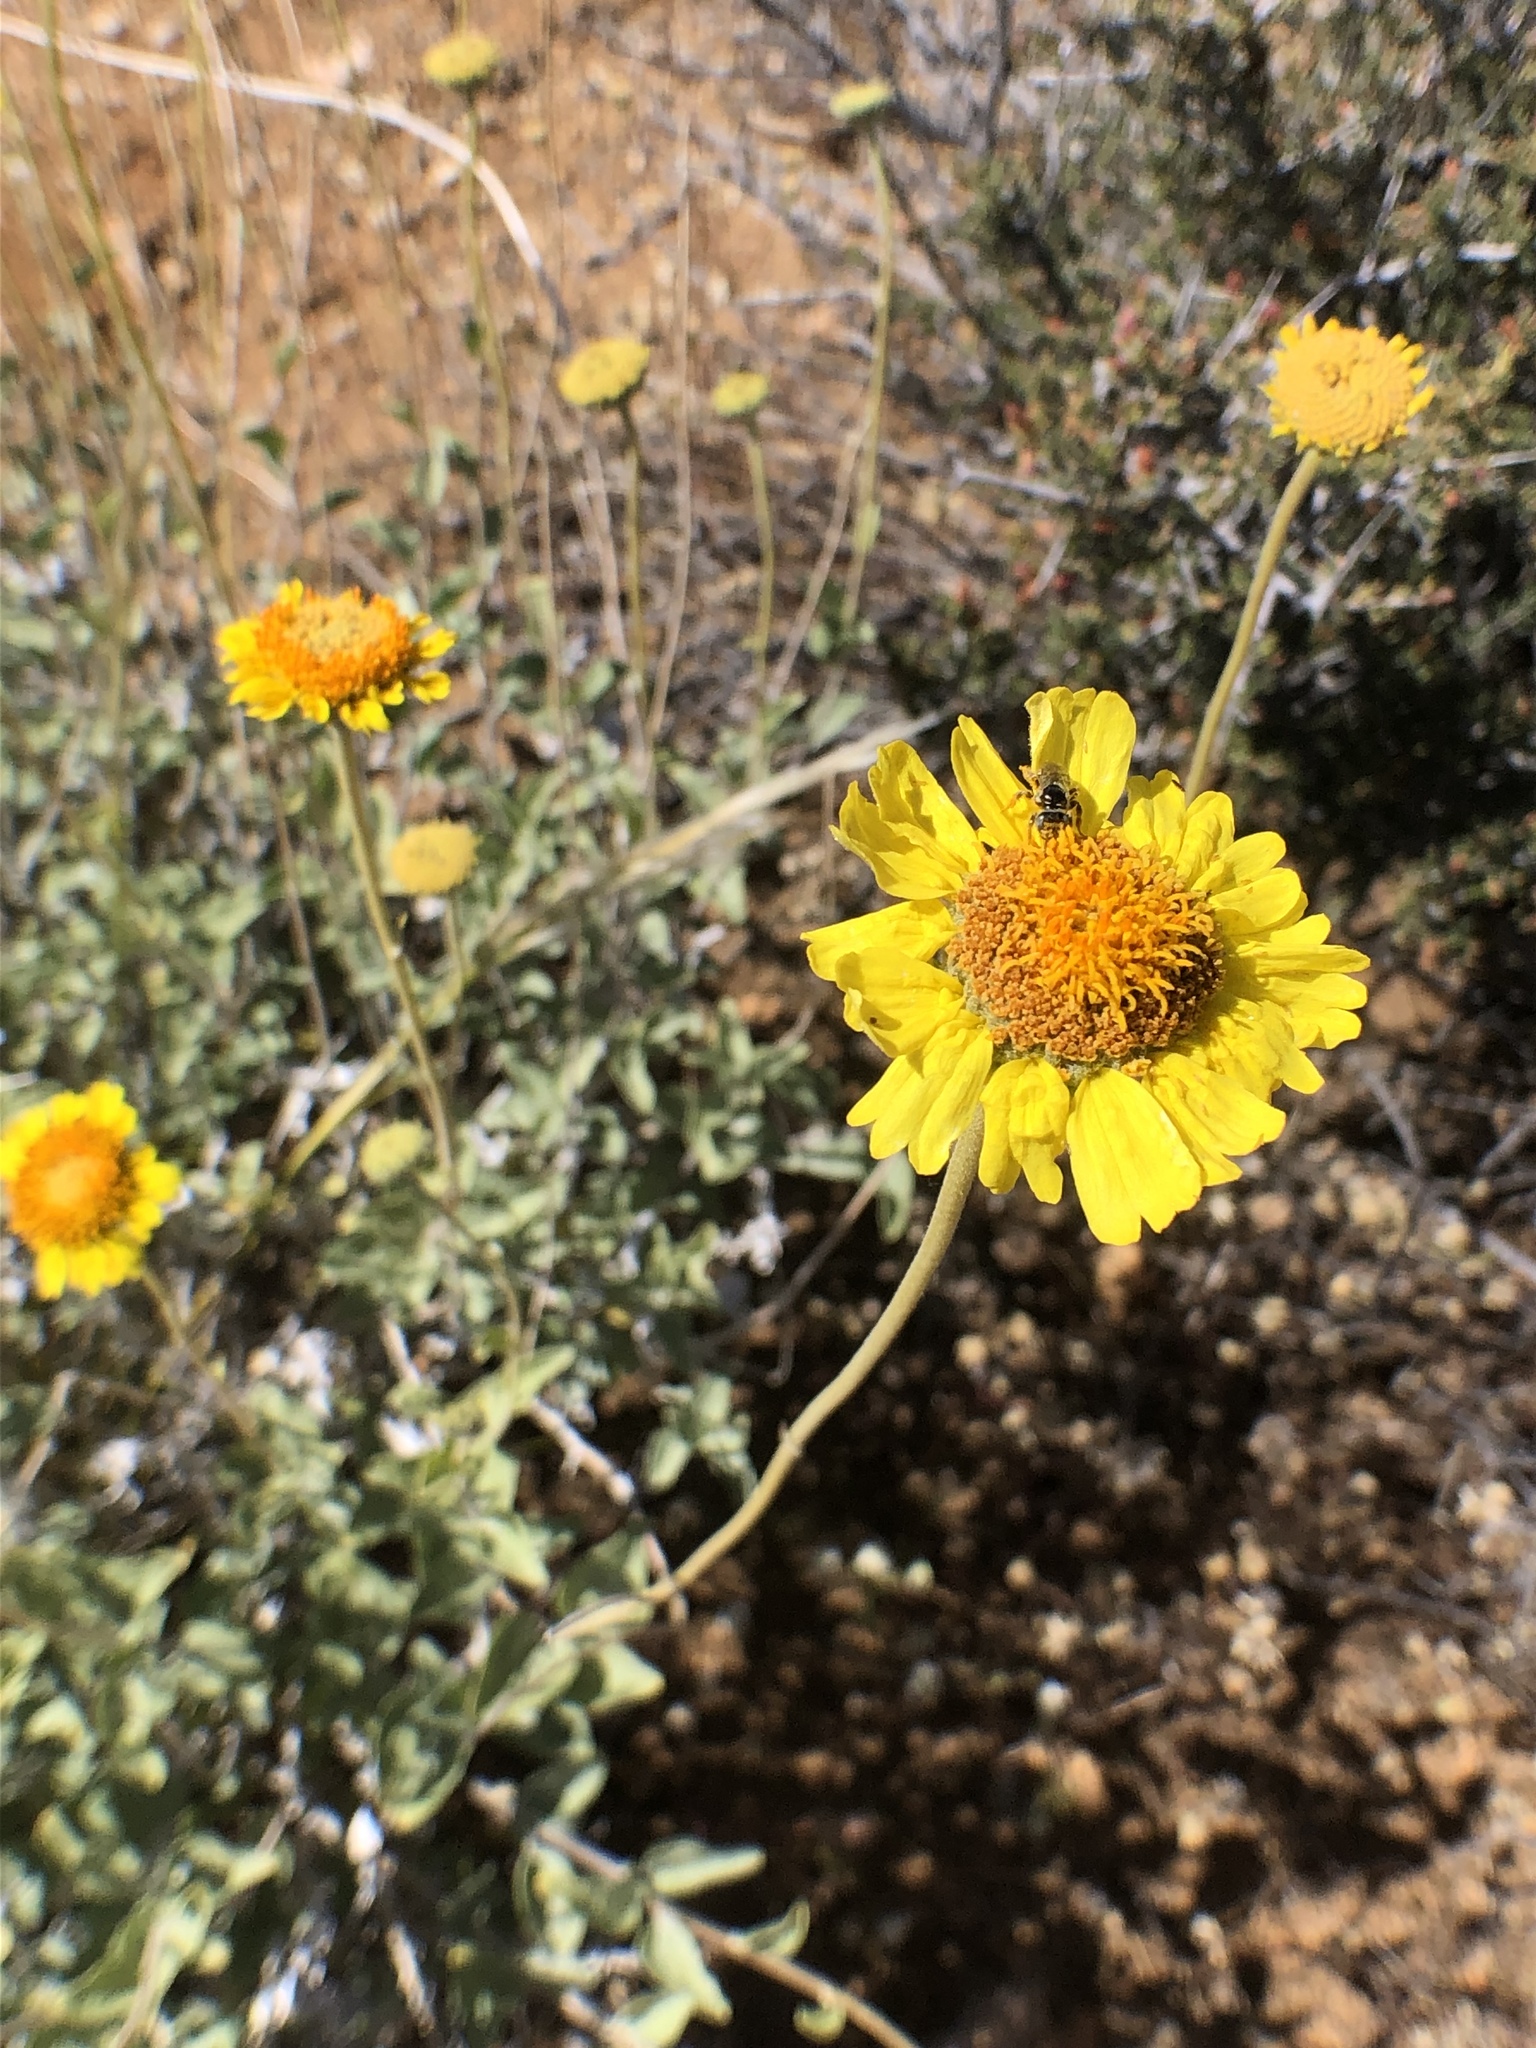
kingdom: Plantae
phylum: Tracheophyta
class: Magnoliopsida
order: Asterales
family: Asteraceae
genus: Encelia
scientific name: Encelia actoni
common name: Acton encelia
